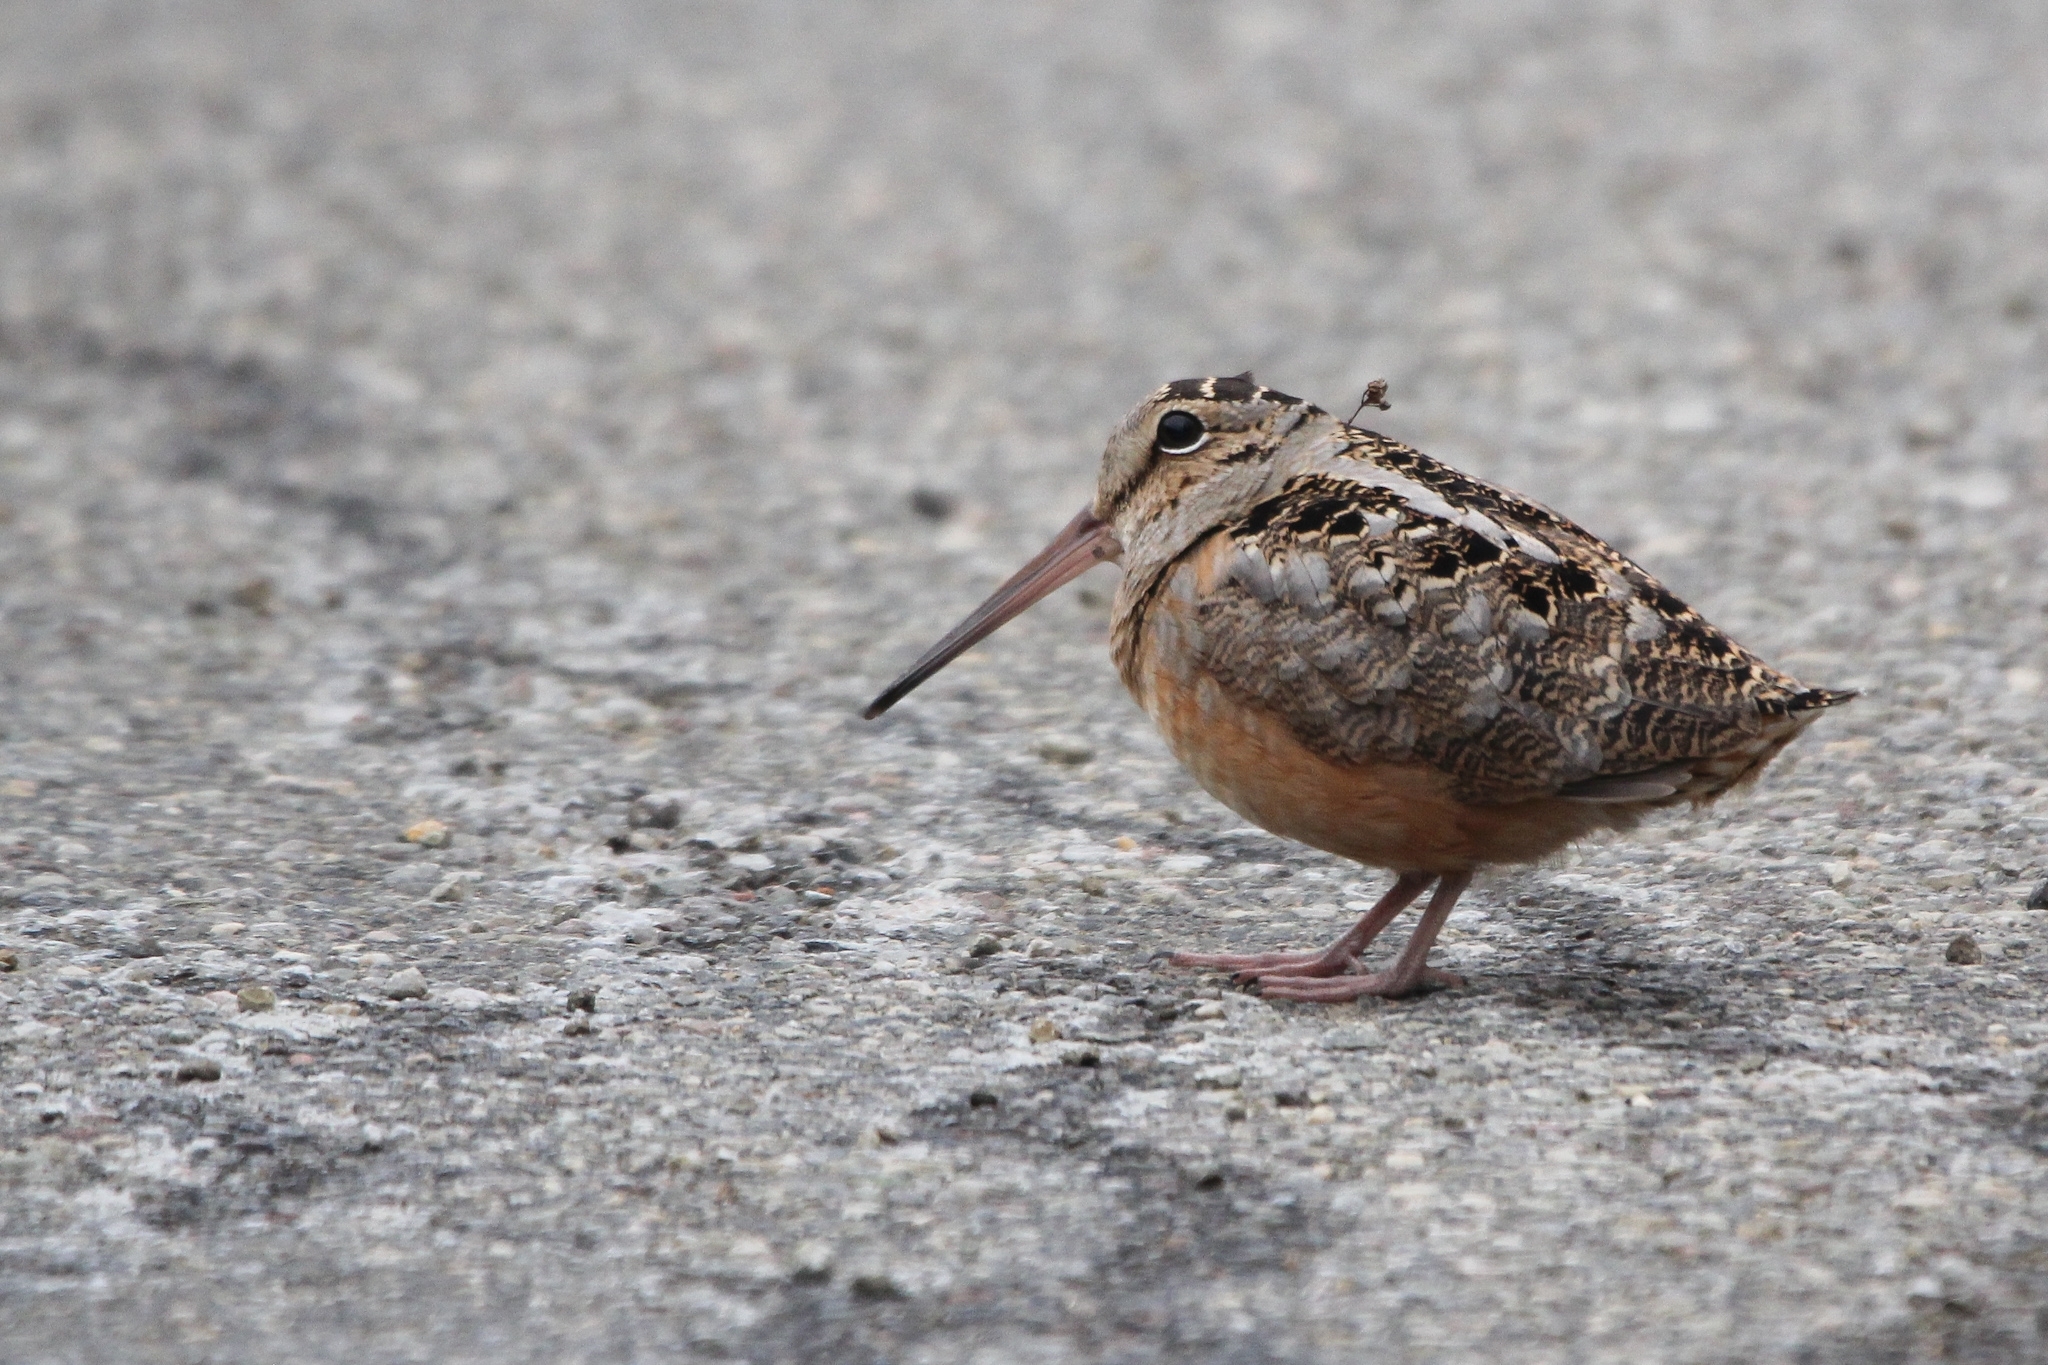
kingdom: Animalia
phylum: Chordata
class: Aves
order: Charadriiformes
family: Scolopacidae
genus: Scolopax
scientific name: Scolopax minor
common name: American woodcock
